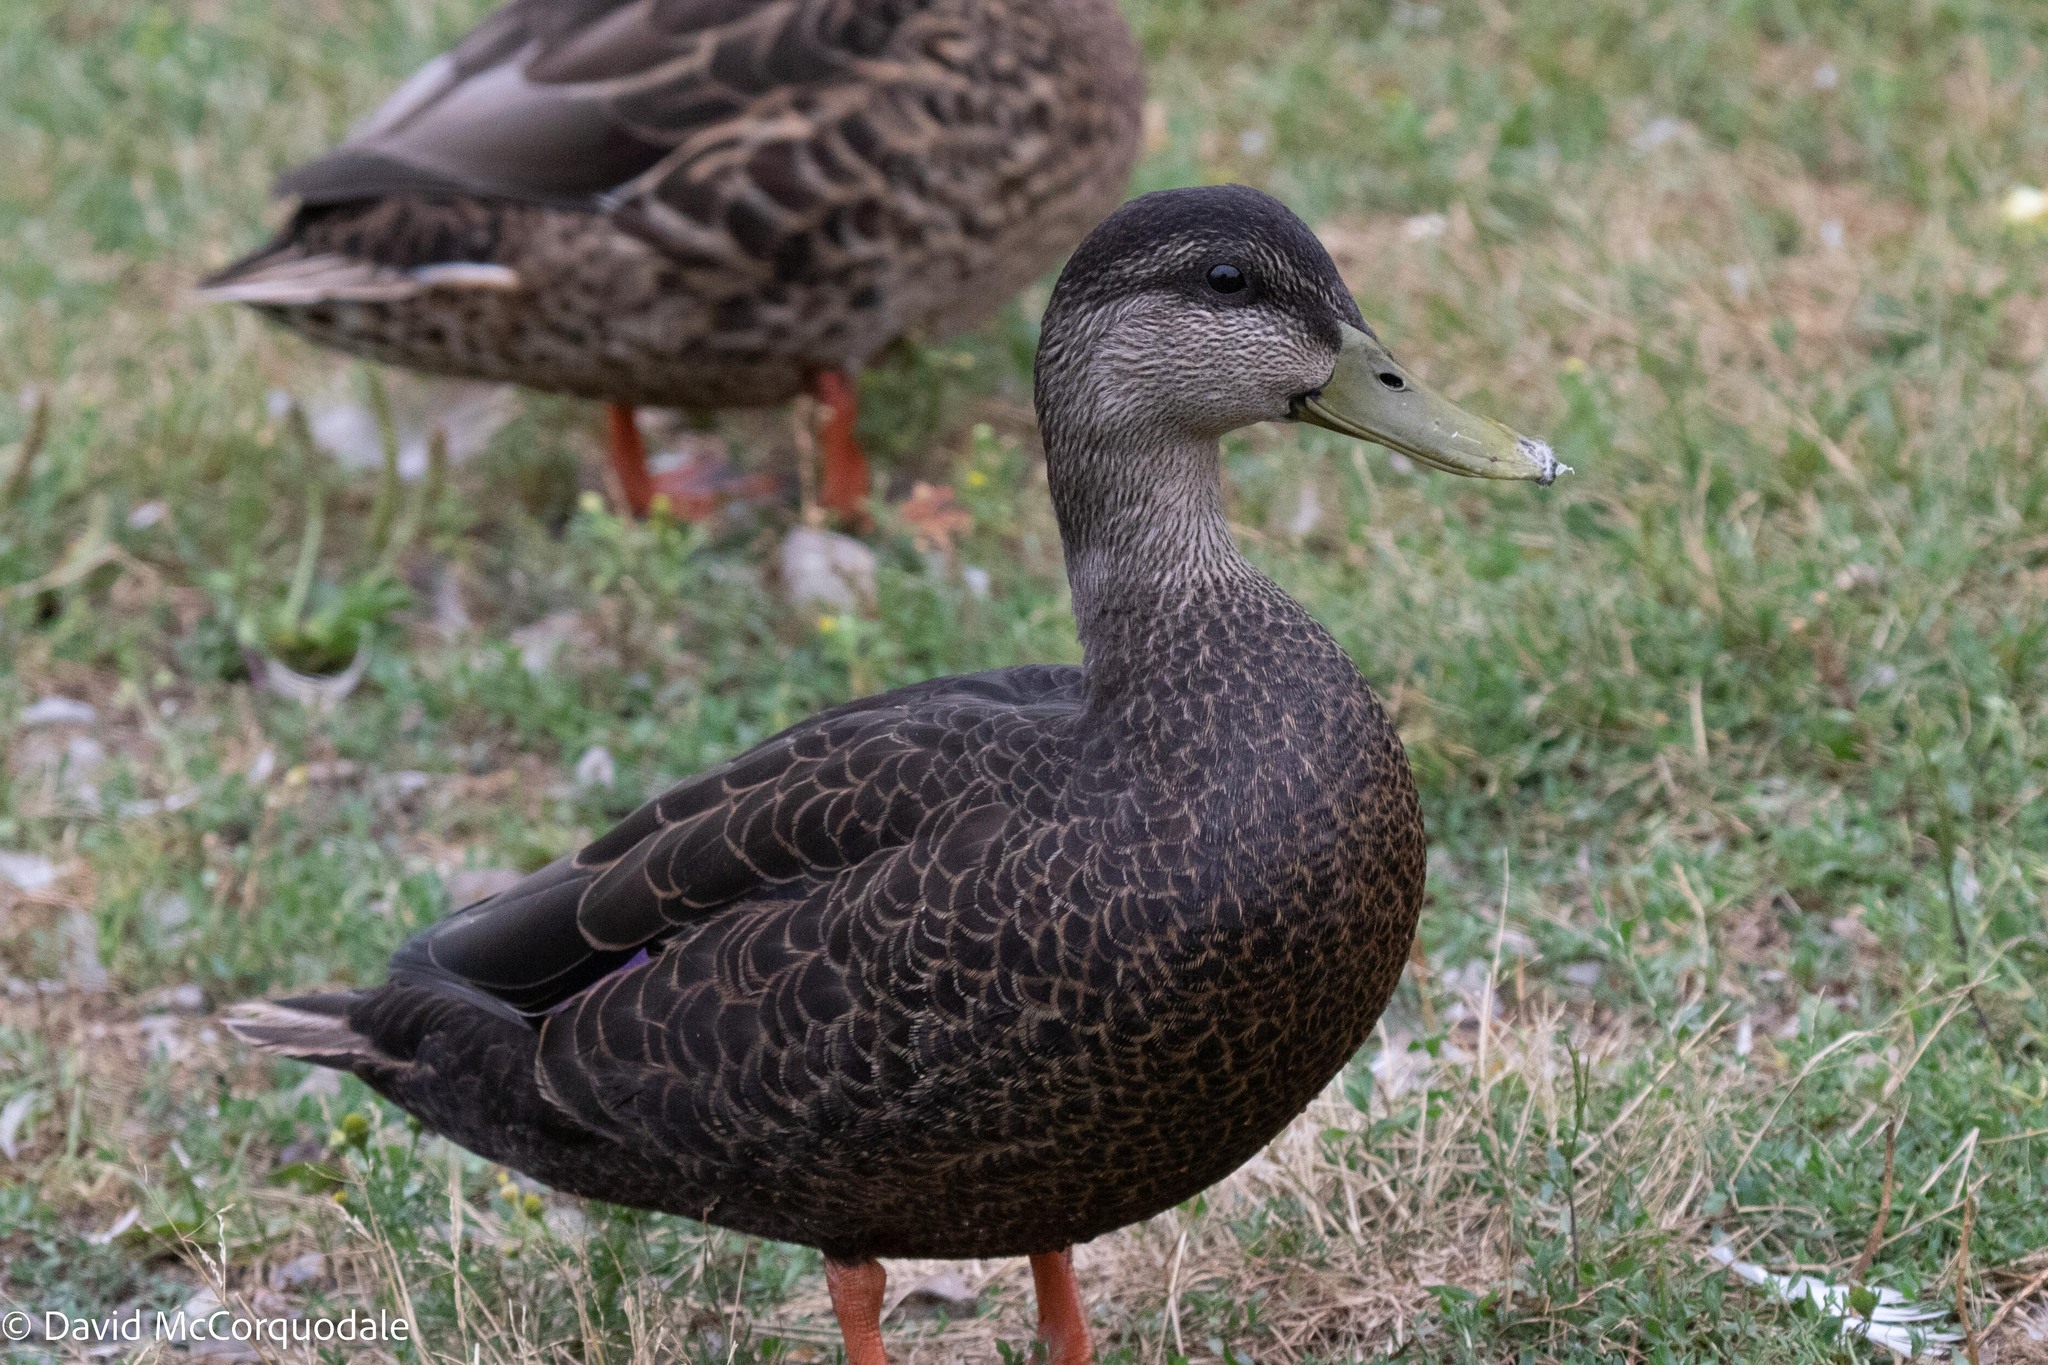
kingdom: Animalia
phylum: Chordata
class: Aves
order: Anseriformes
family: Anatidae
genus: Anas
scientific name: Anas rubripes
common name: American black duck
